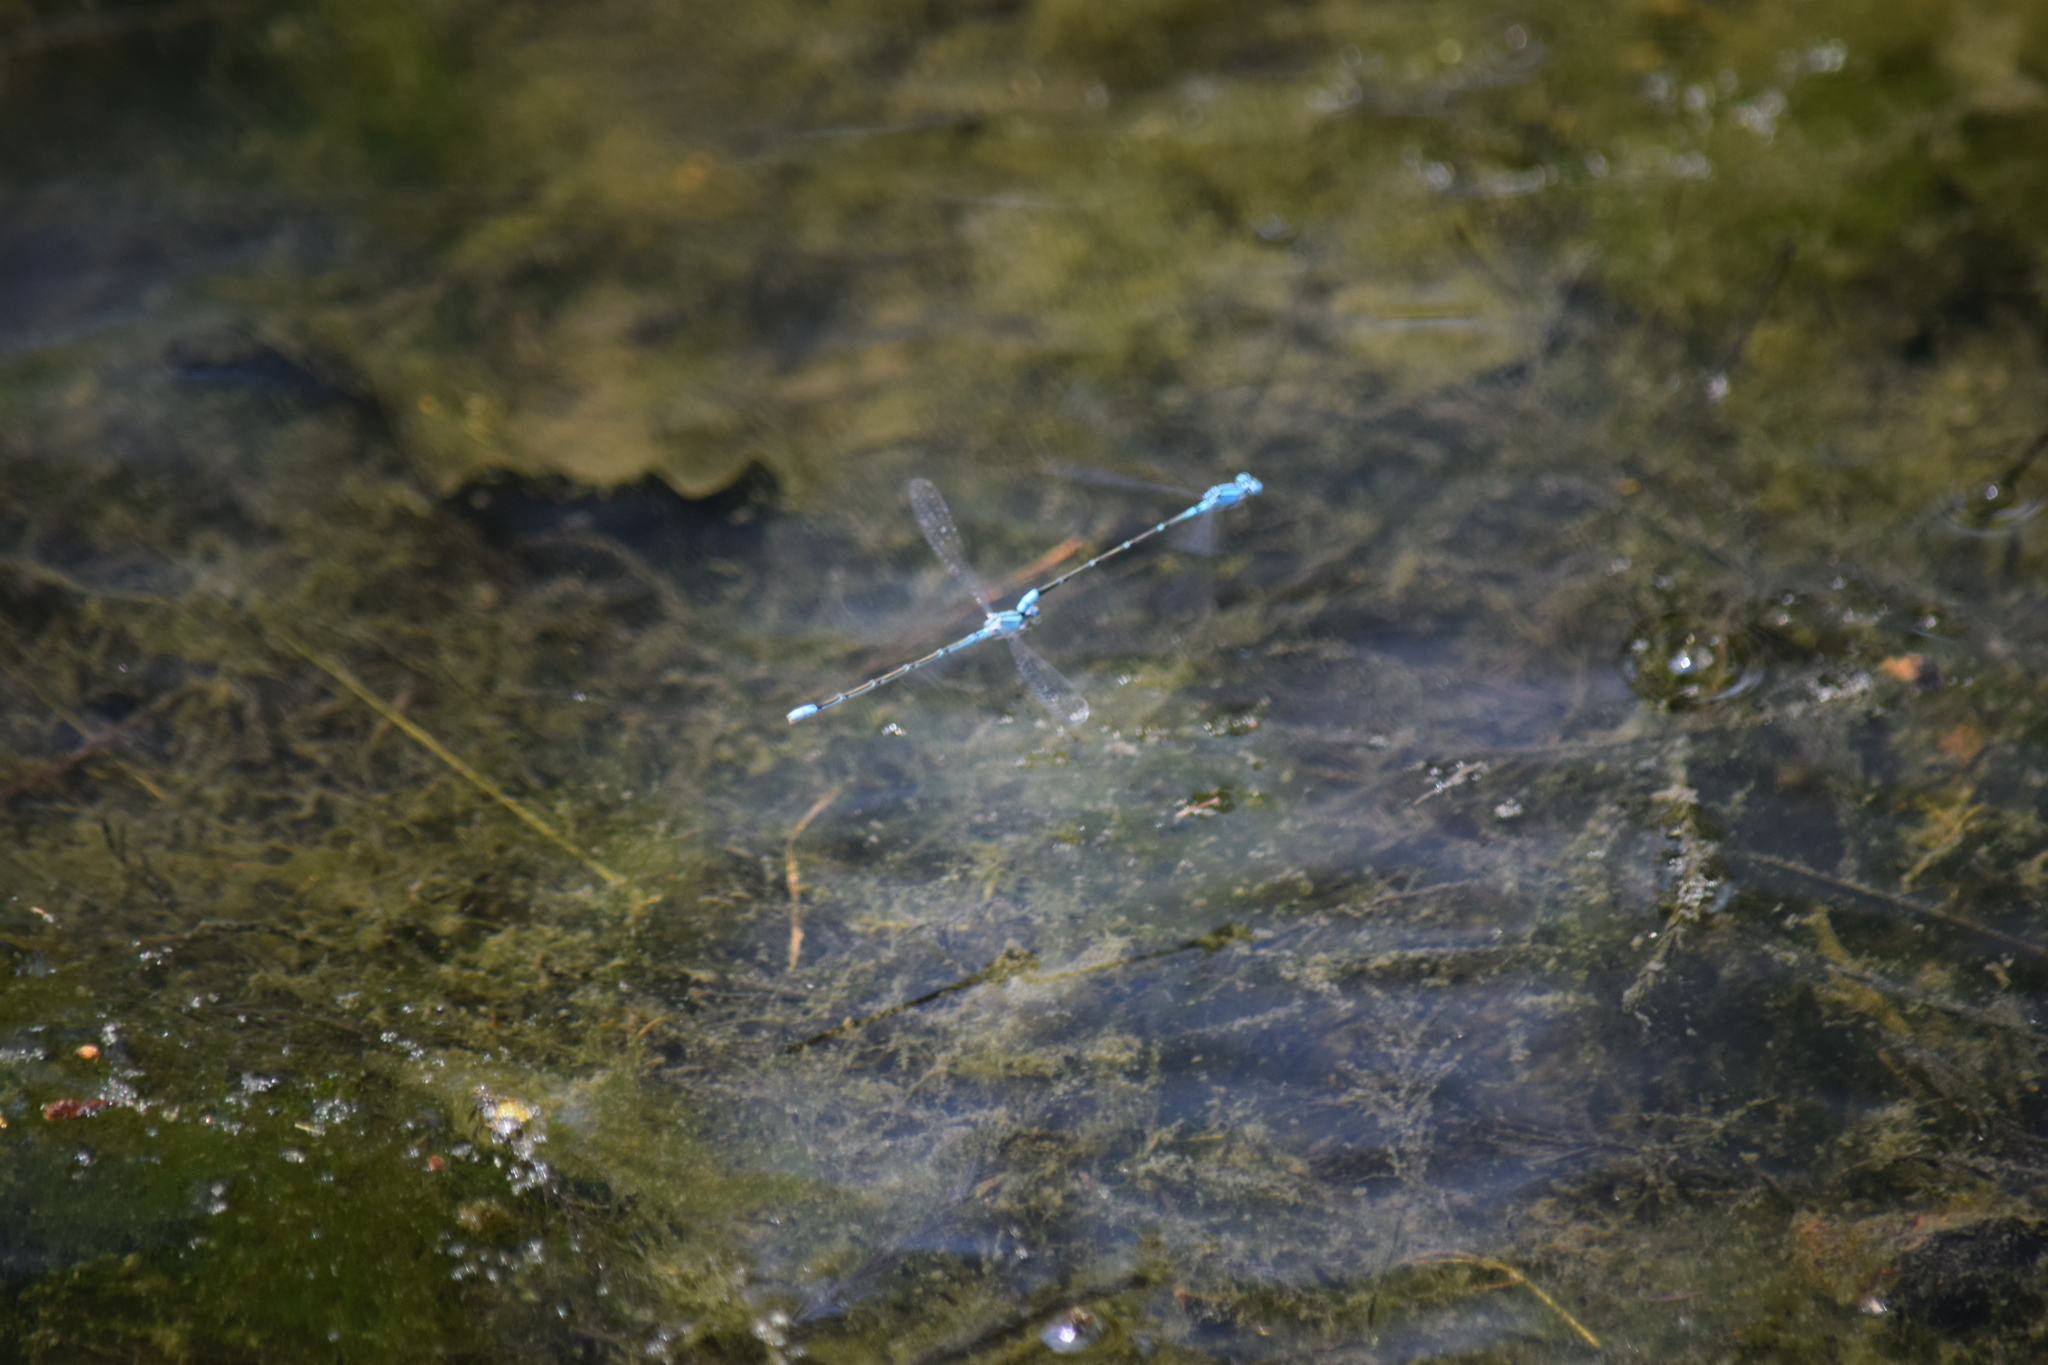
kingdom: Animalia
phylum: Arthropoda
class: Insecta
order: Odonata
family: Coenagrionidae
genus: Enallagma
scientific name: Enallagma traviatum
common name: Slender bluet
